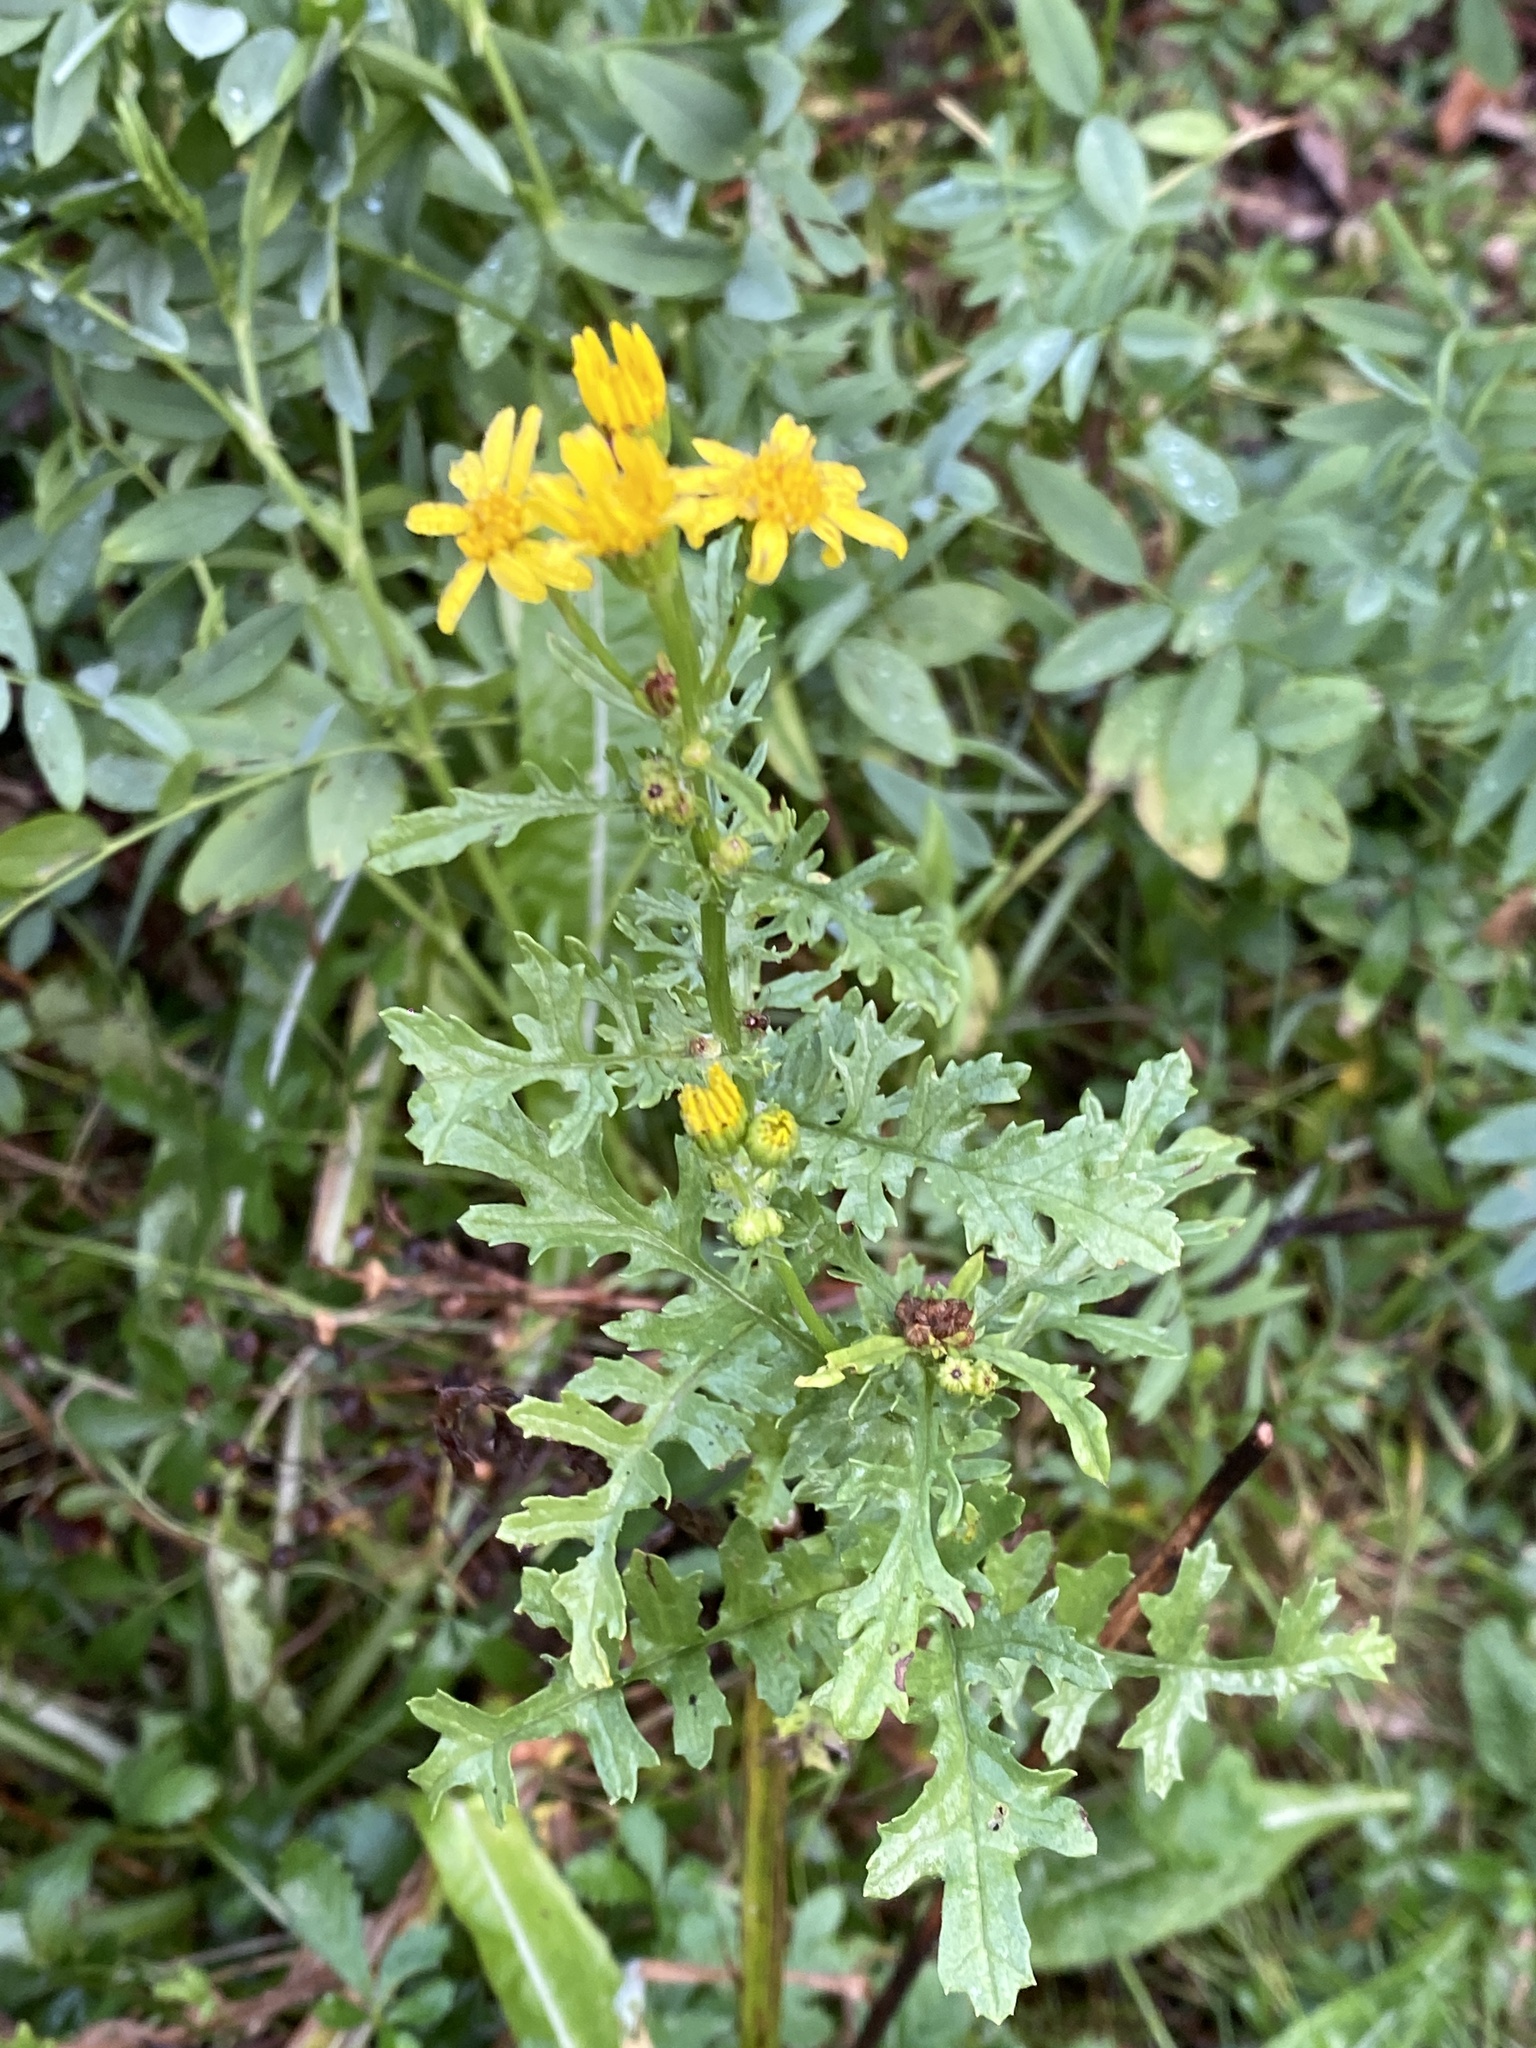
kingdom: Plantae
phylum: Tracheophyta
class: Magnoliopsida
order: Asterales
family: Asteraceae
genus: Jacobaea
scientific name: Jacobaea vulgaris
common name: Stinking willie
